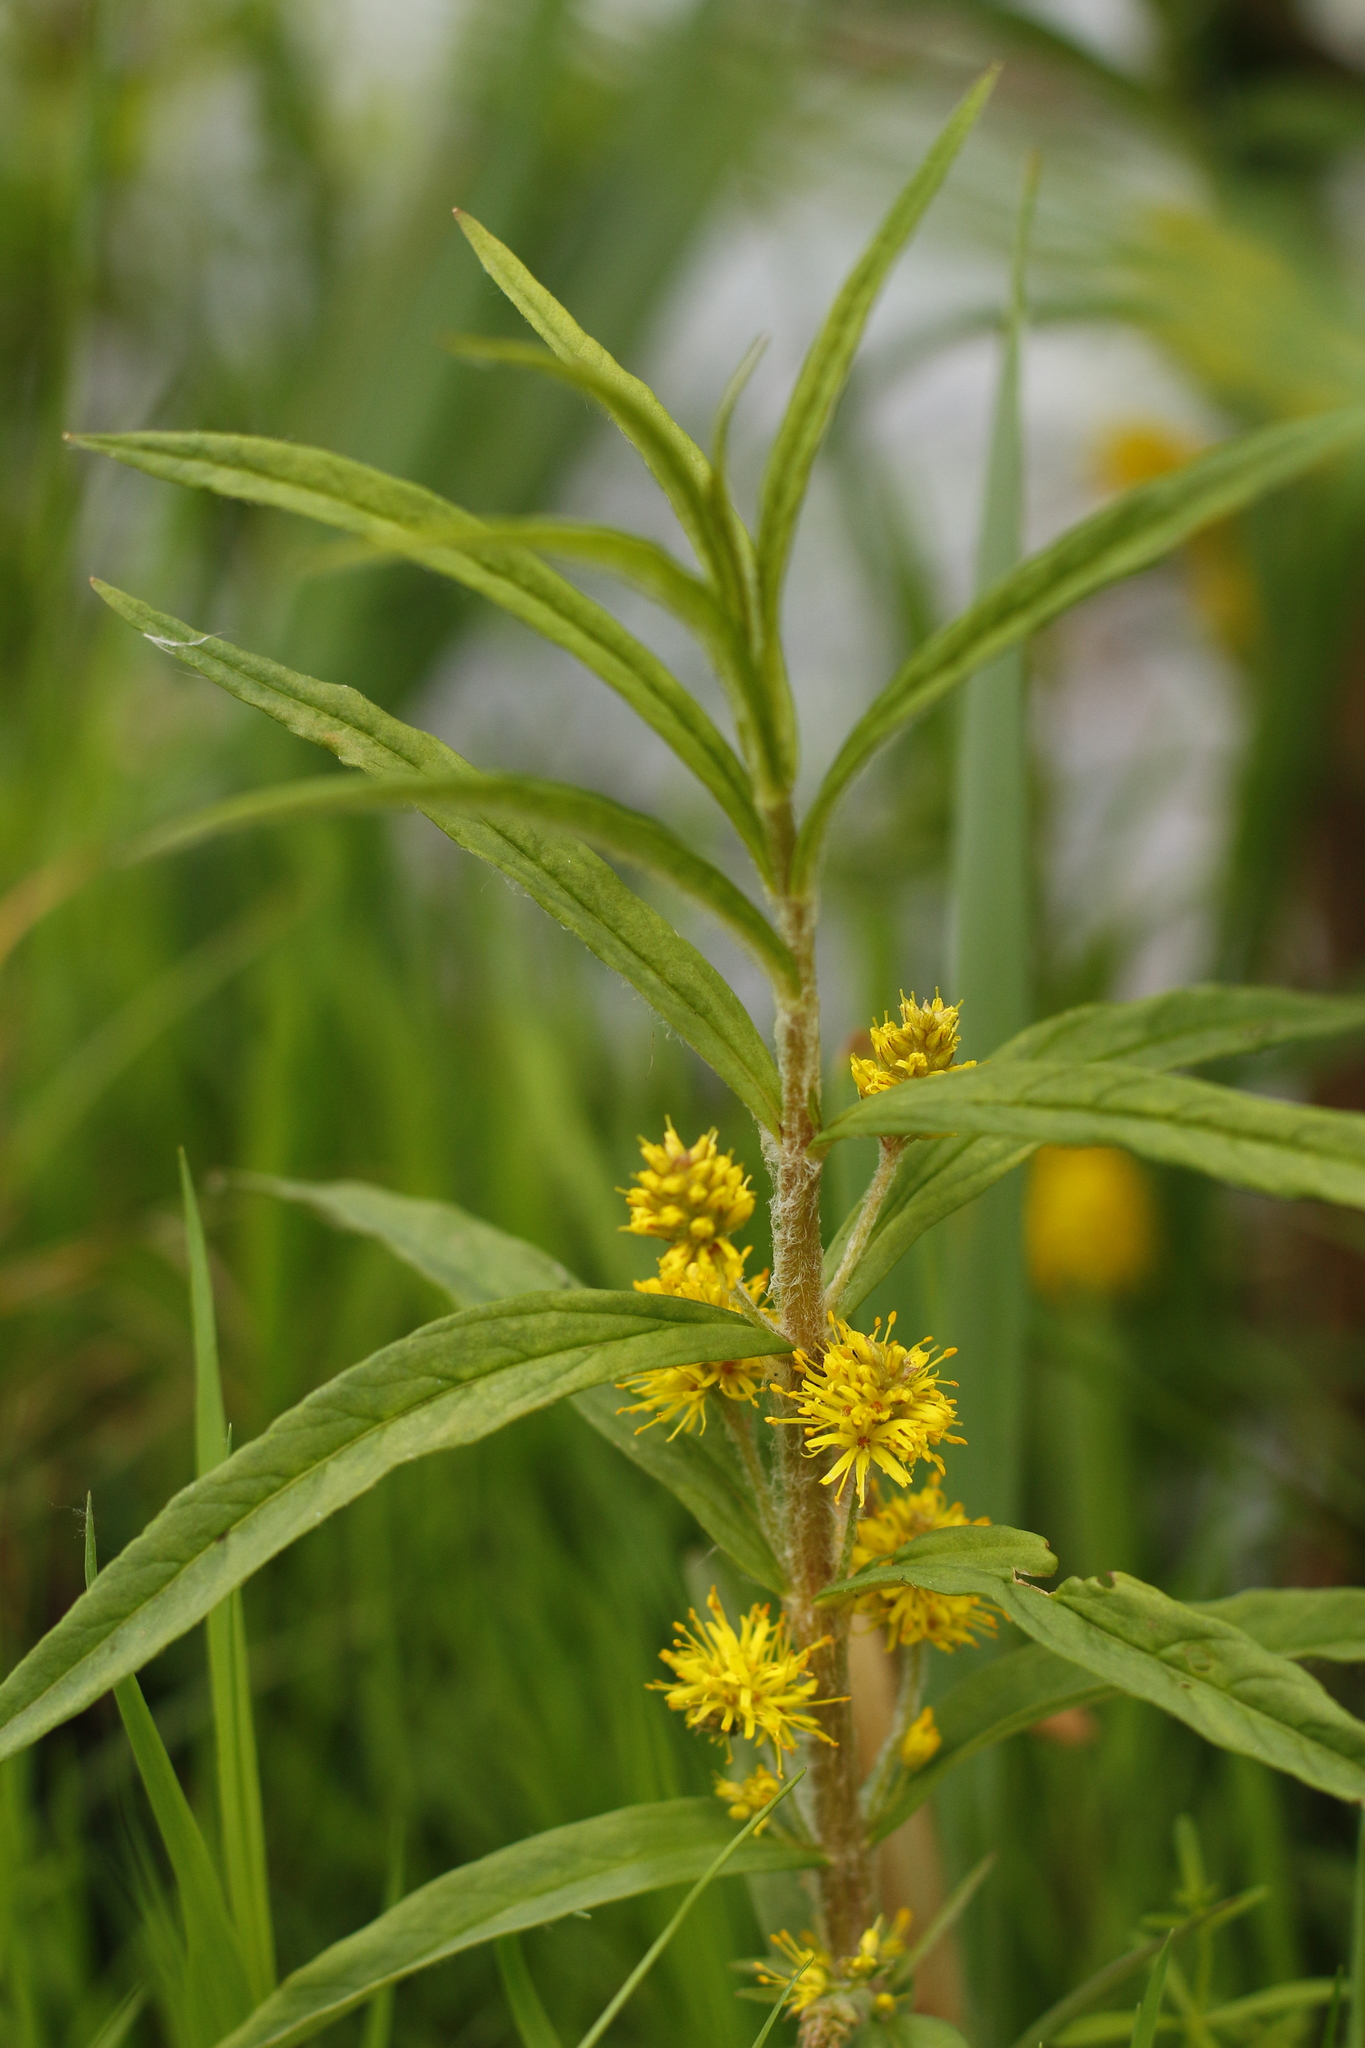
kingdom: Plantae
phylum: Tracheophyta
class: Magnoliopsida
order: Ericales
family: Primulaceae
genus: Lysimachia
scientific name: Lysimachia thyrsiflora
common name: Tufted loosestrife
